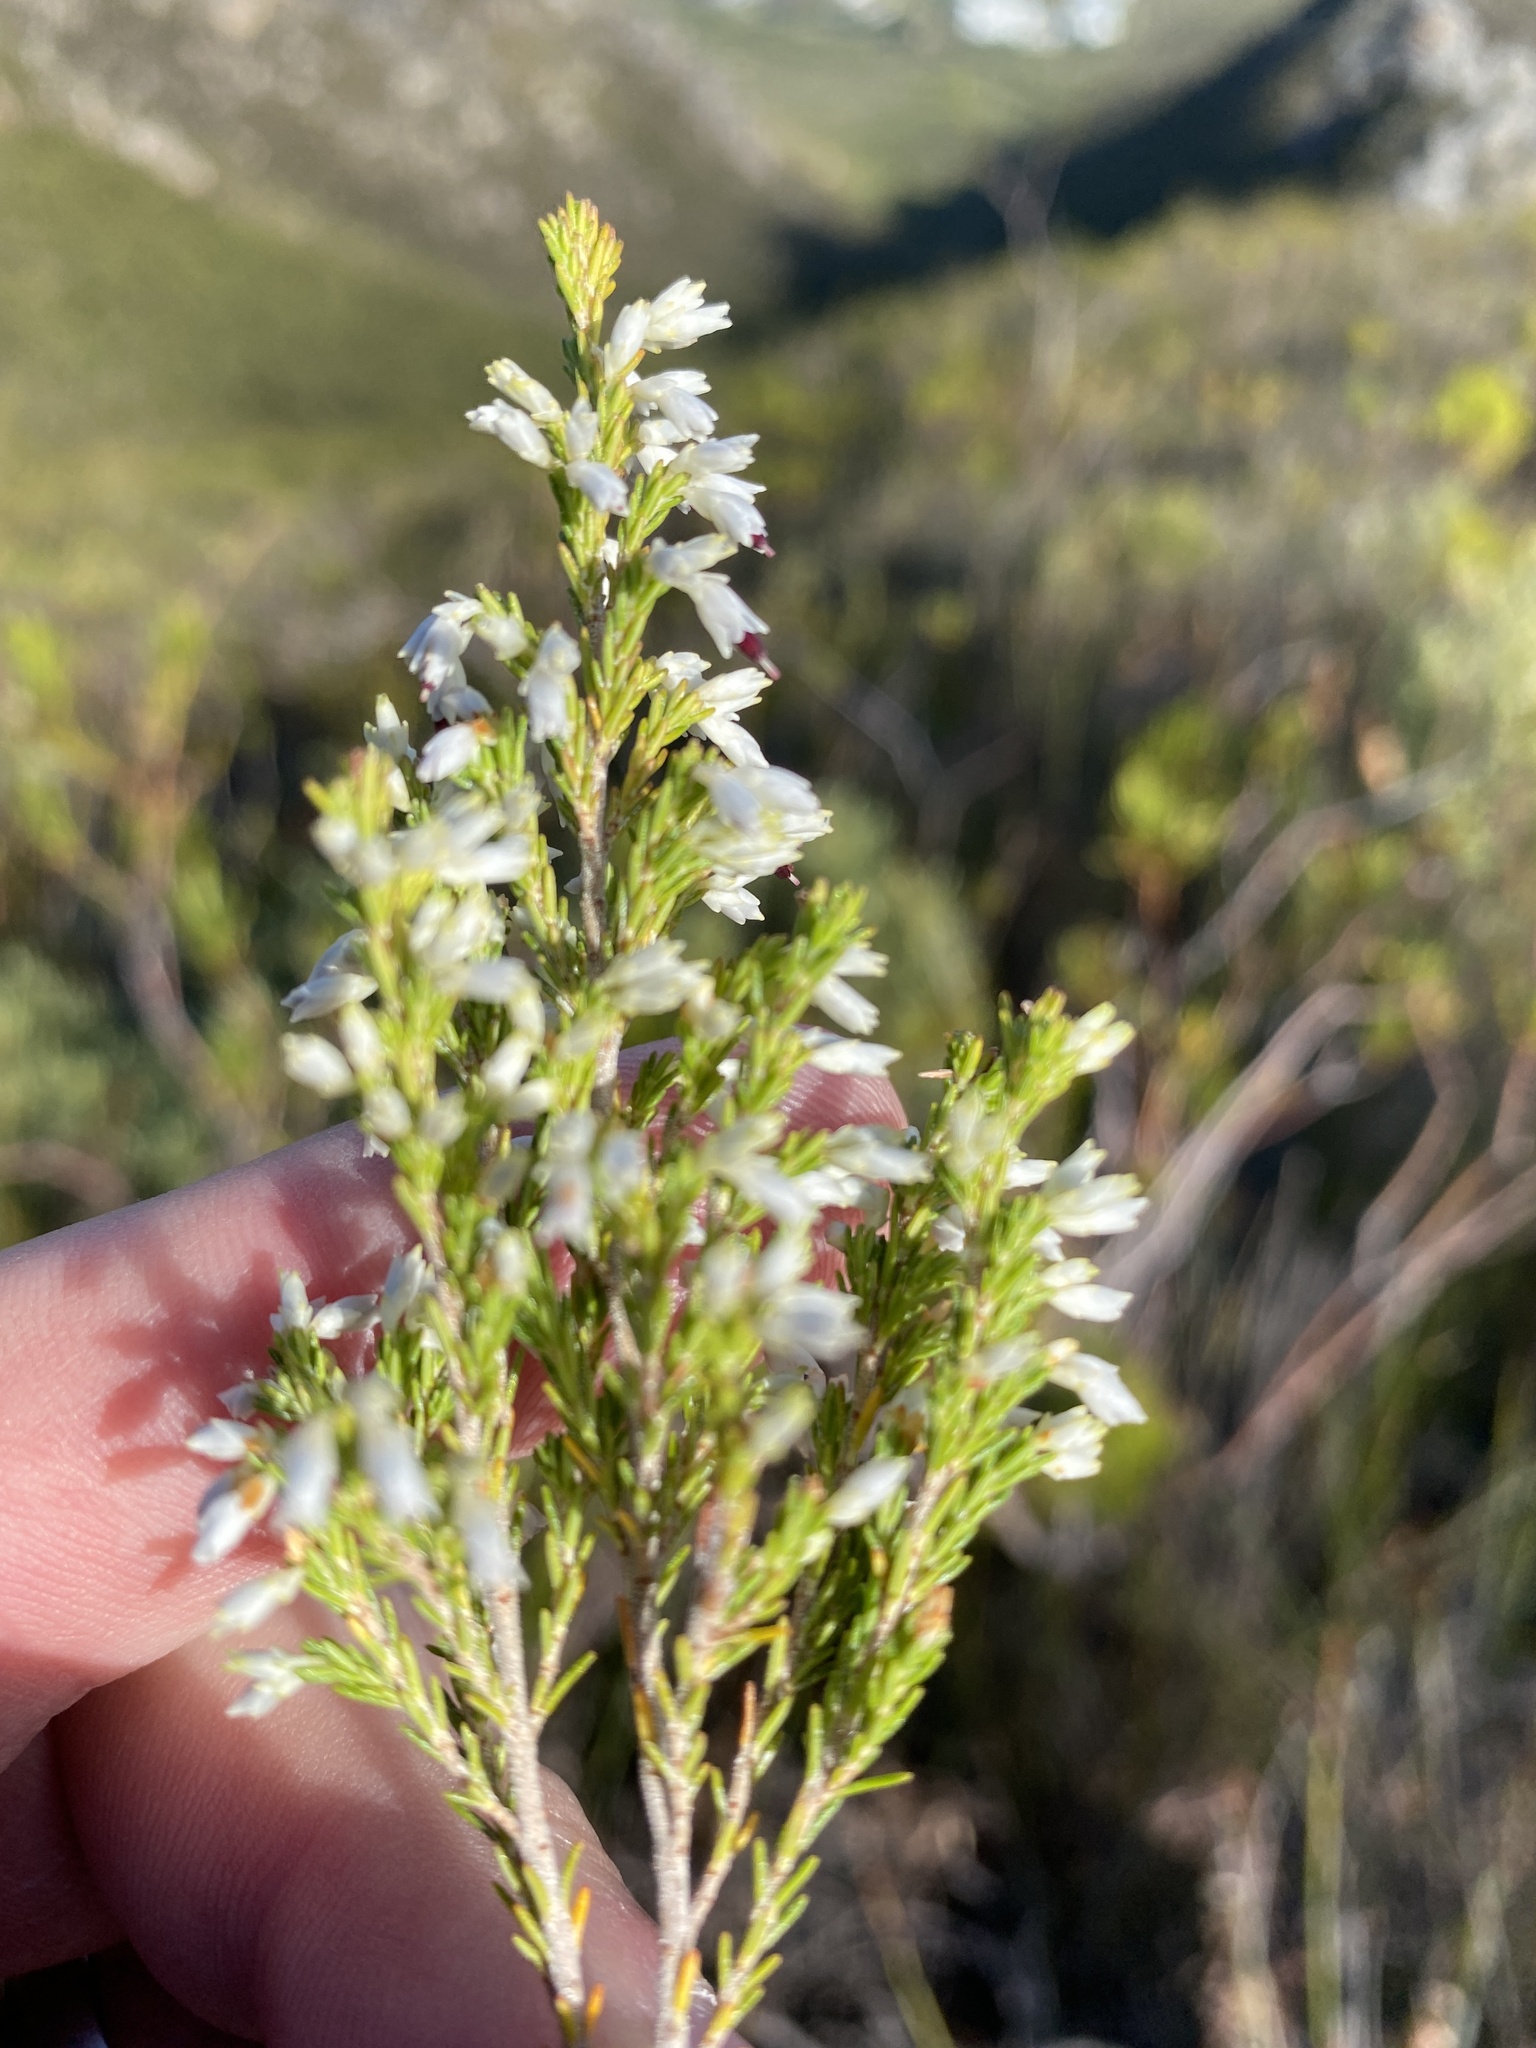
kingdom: Plantae
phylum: Tracheophyta
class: Magnoliopsida
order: Ericales
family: Ericaceae
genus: Erica
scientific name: Erica imbricata
